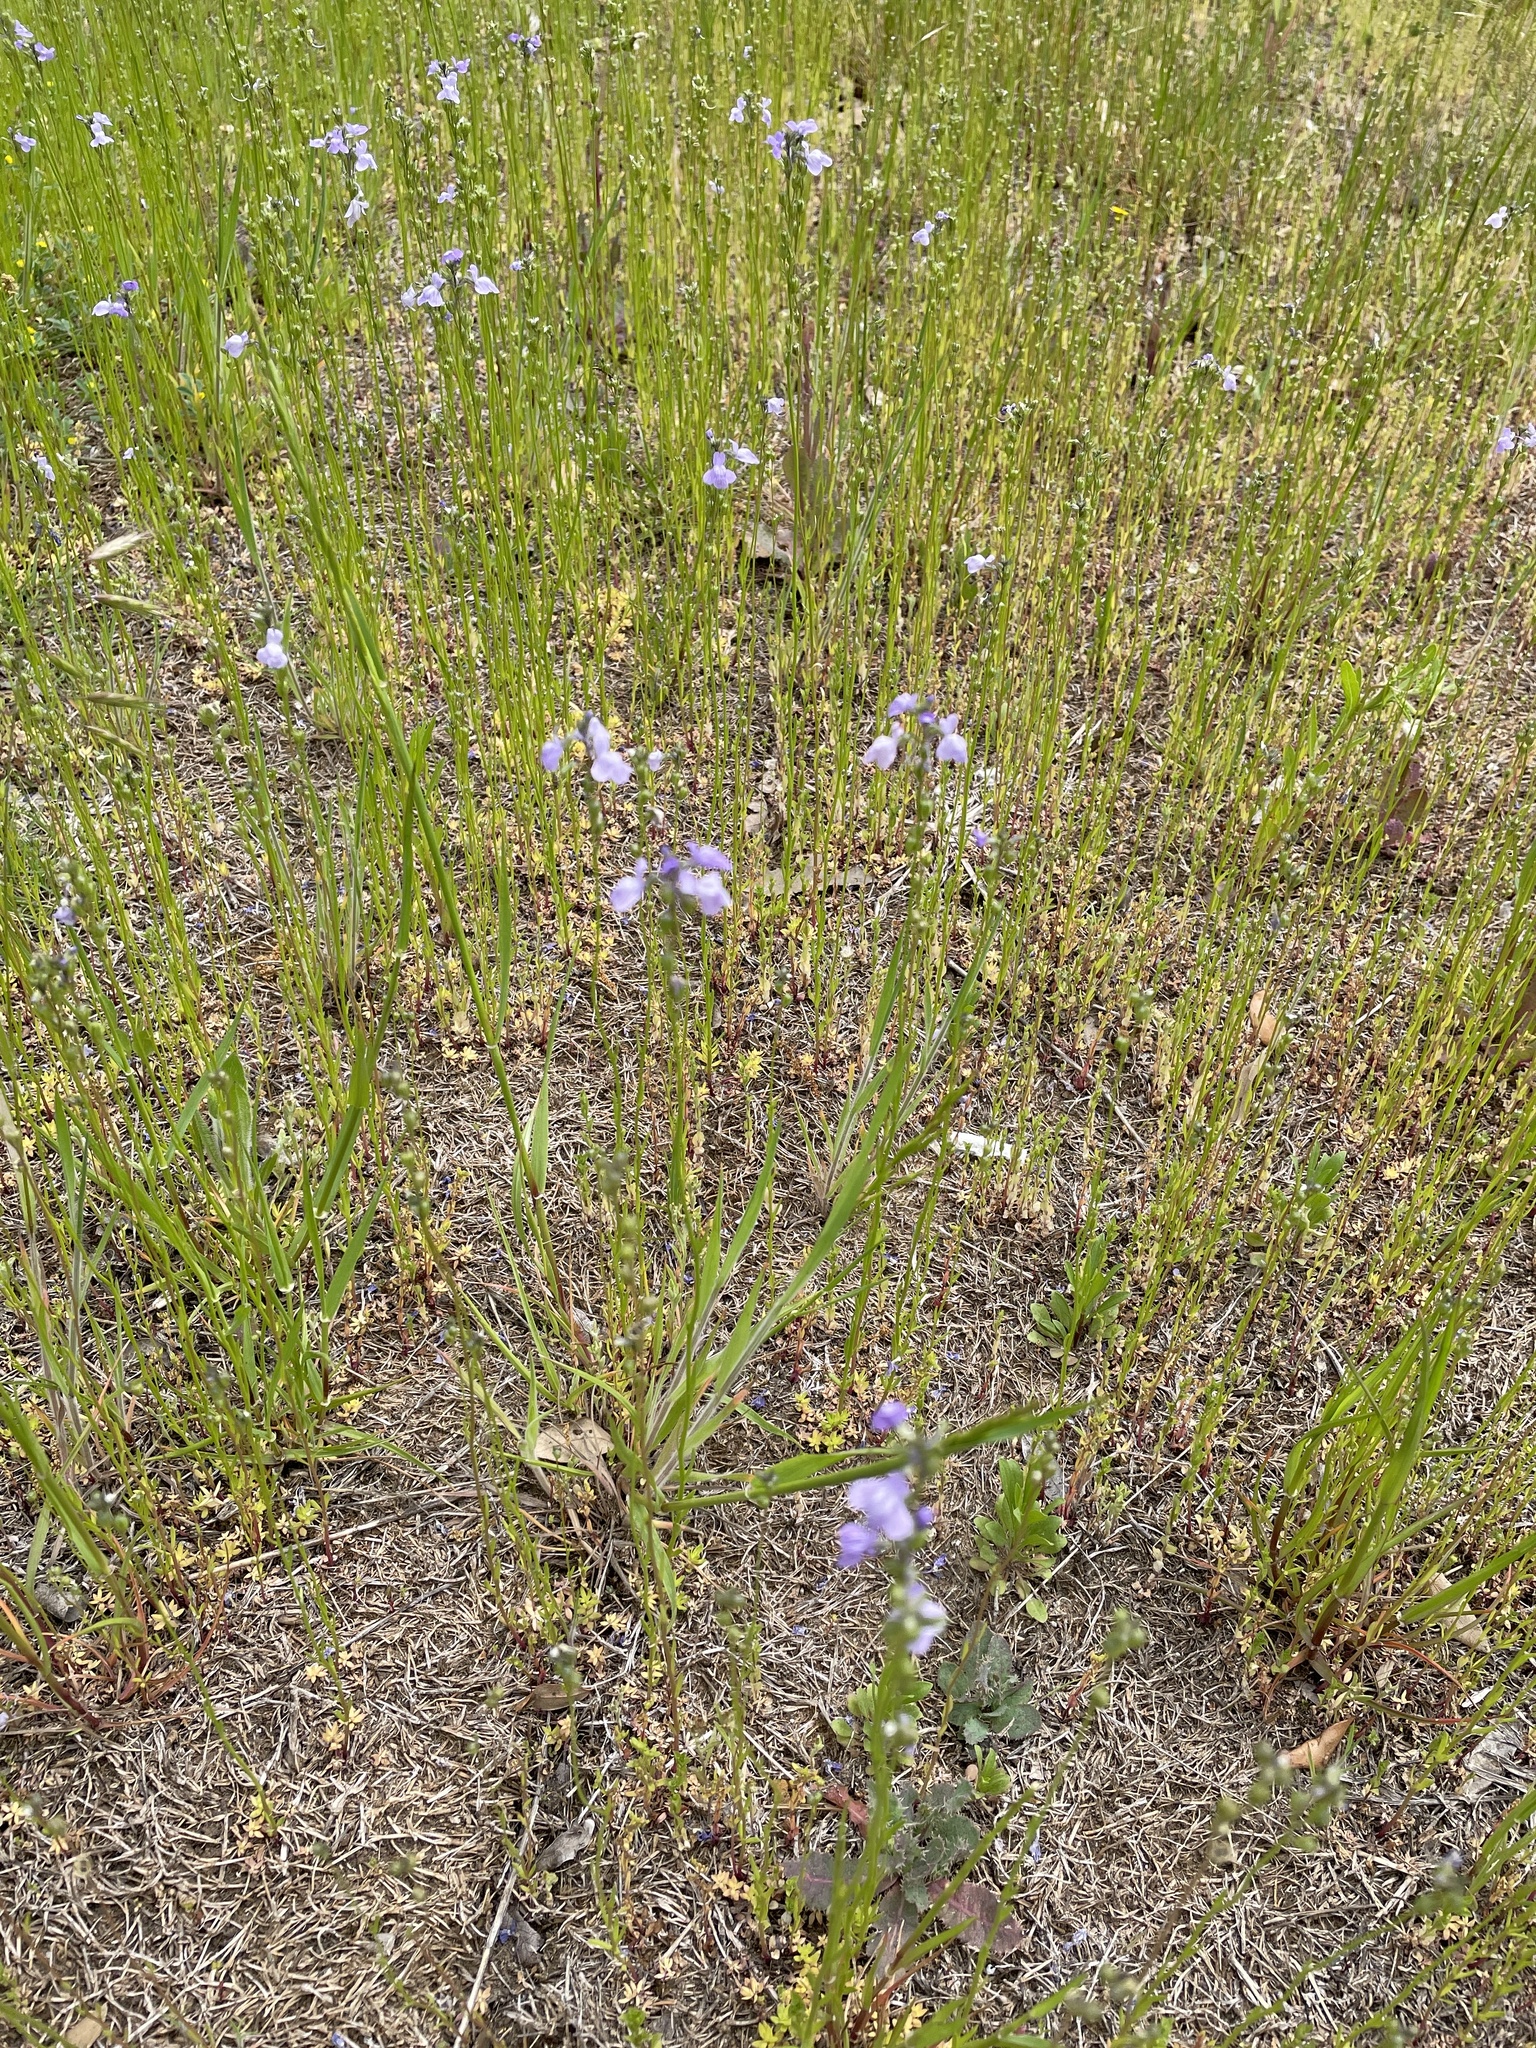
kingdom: Plantae
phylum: Tracheophyta
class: Magnoliopsida
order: Lamiales
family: Plantaginaceae
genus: Nuttallanthus
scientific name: Nuttallanthus texanus
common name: Texas toadflax
